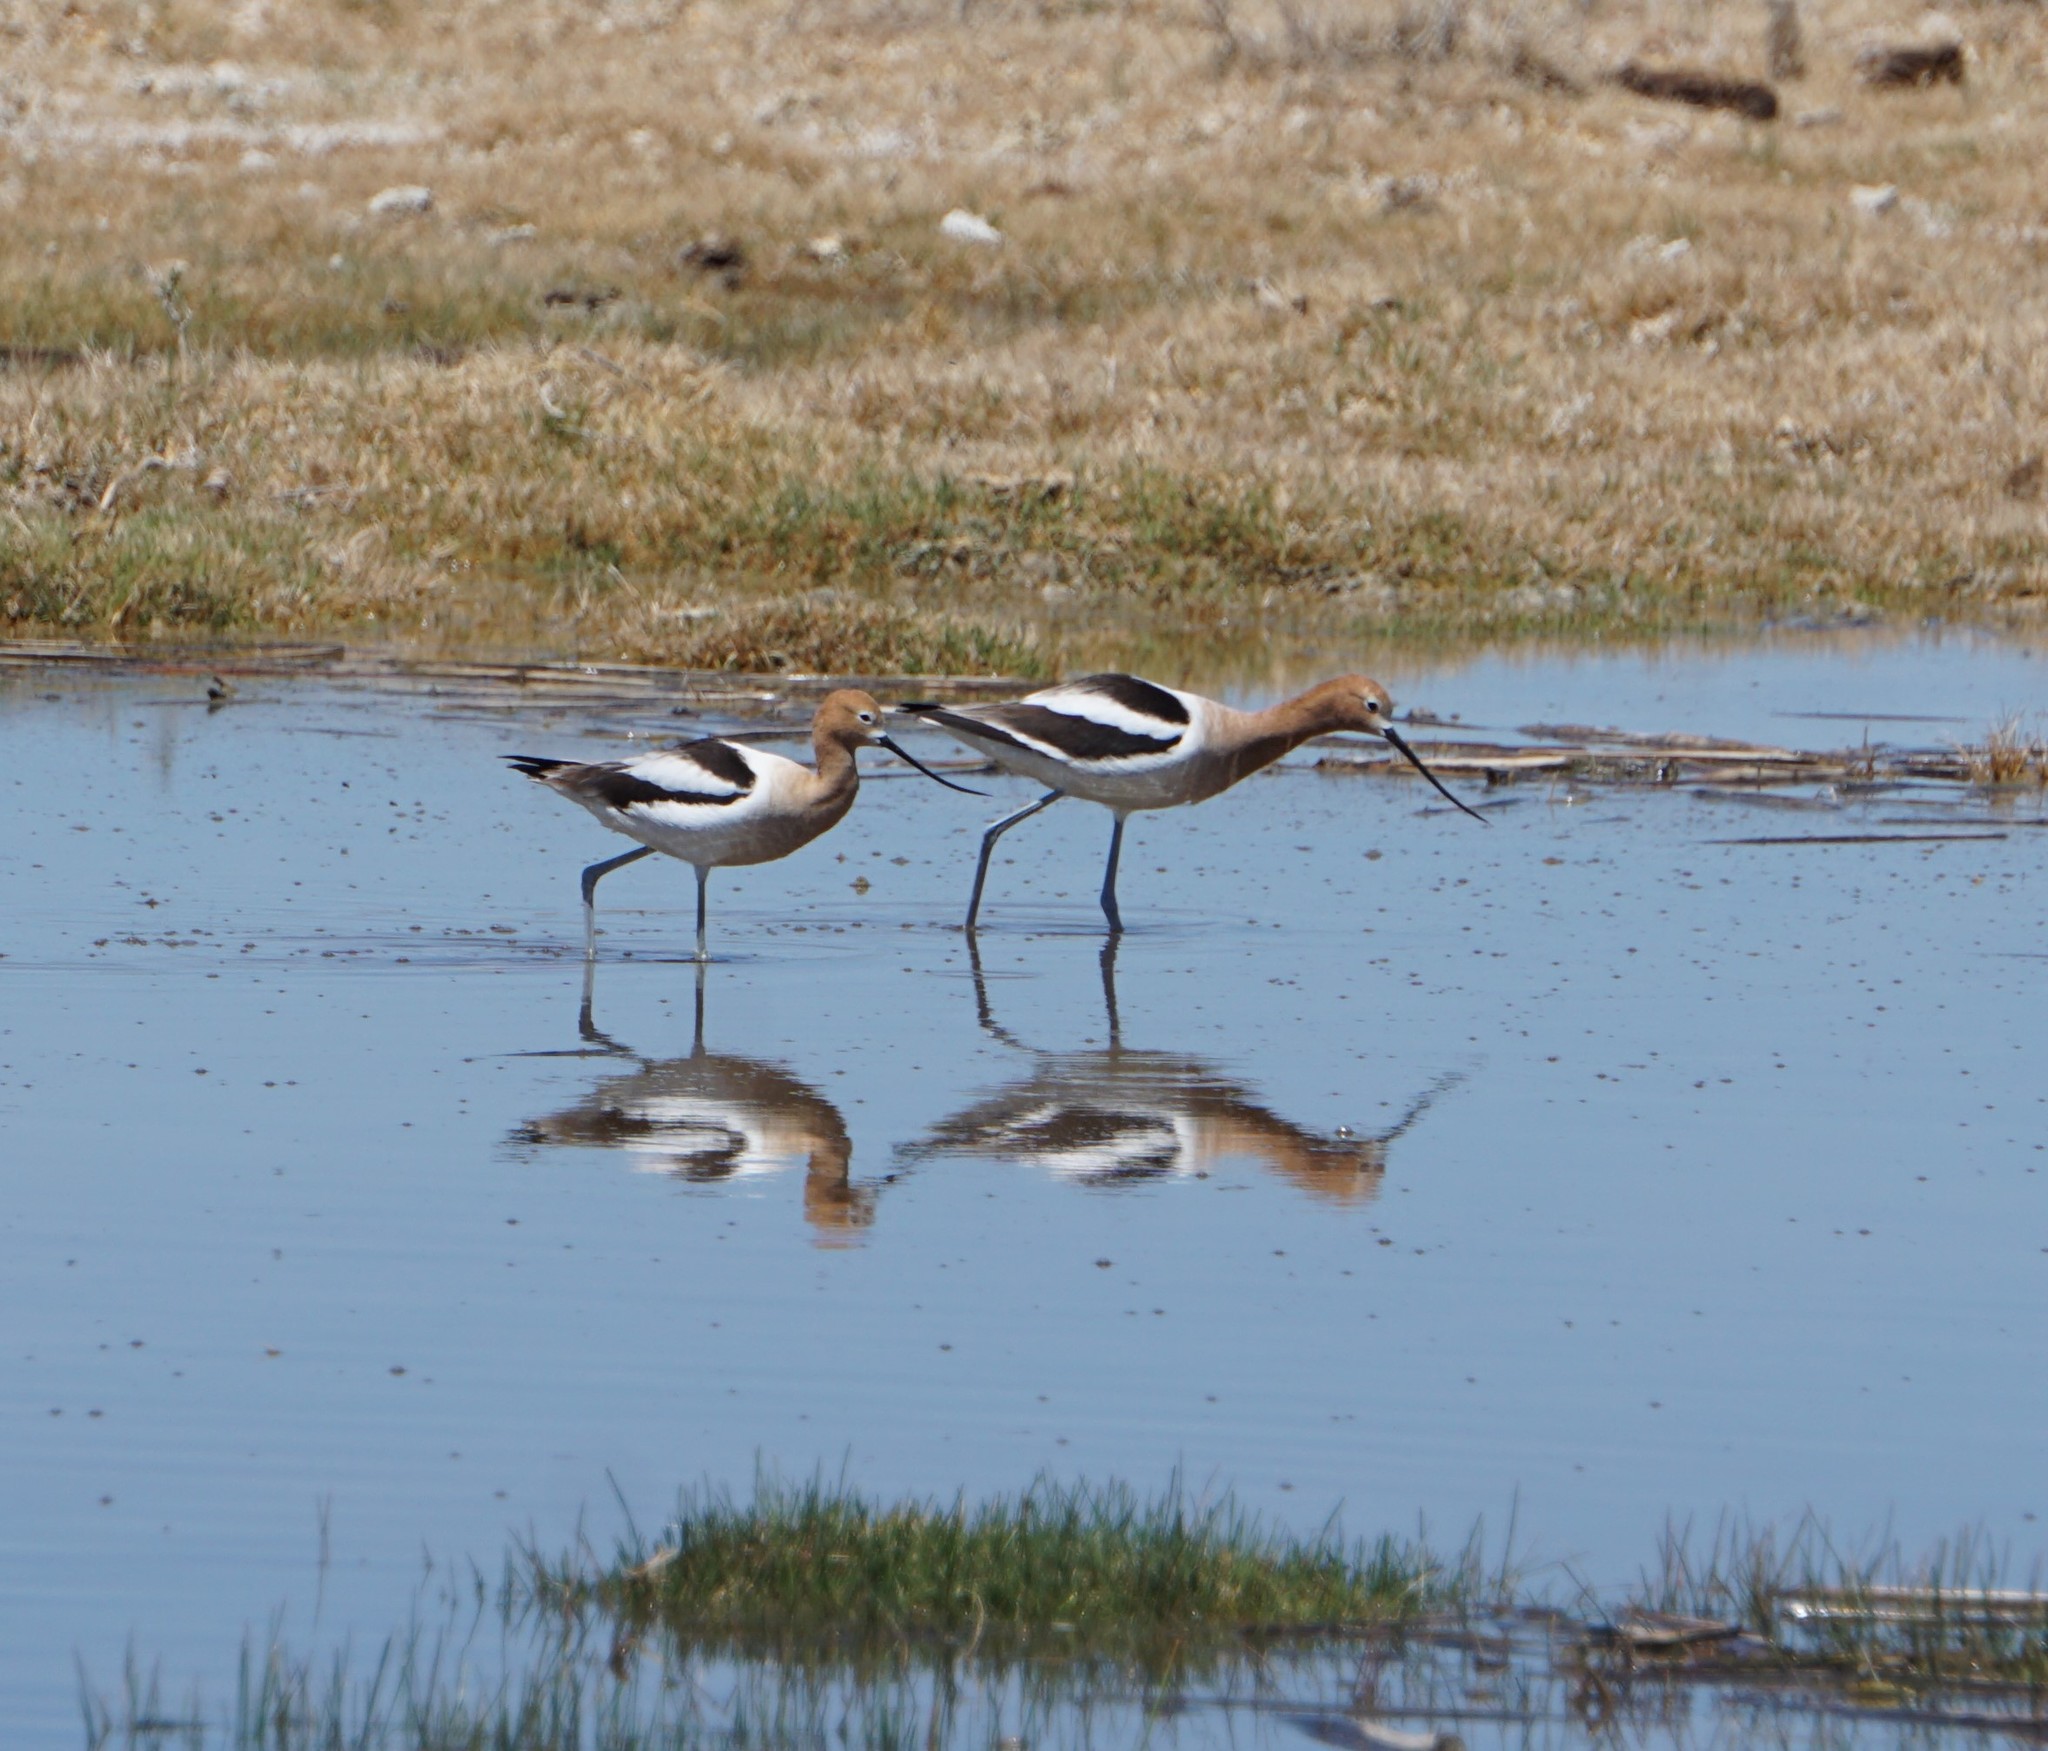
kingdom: Animalia
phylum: Chordata
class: Aves
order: Charadriiformes
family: Recurvirostridae
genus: Recurvirostra
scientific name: Recurvirostra americana
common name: American avocet
